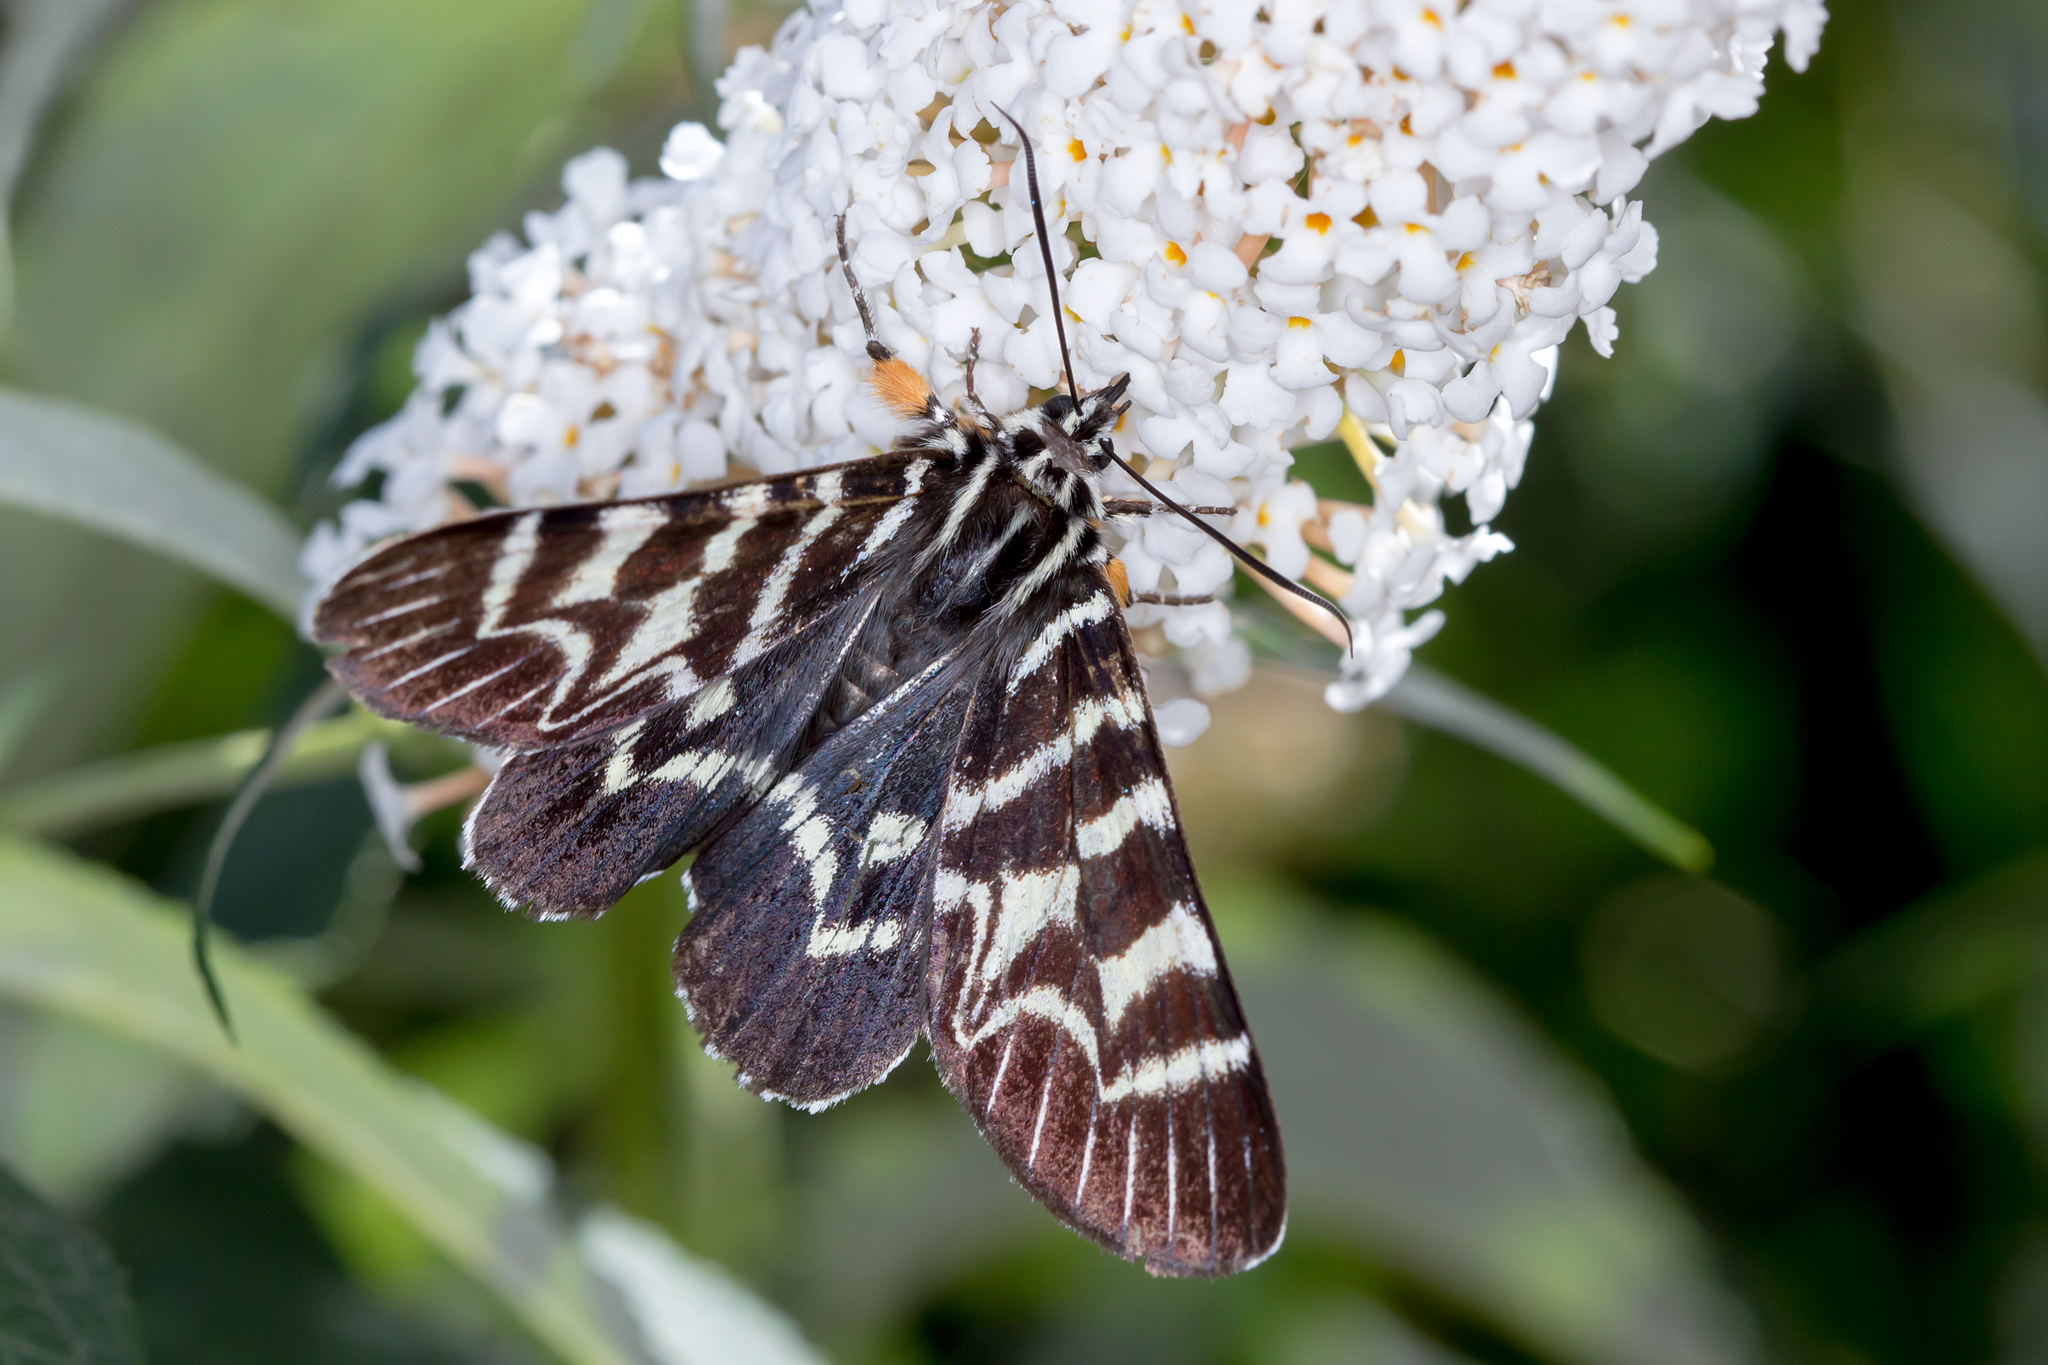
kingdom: Animalia
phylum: Arthropoda
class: Insecta
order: Lepidoptera
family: Noctuidae
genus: Comocrus
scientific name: Comocrus behri
